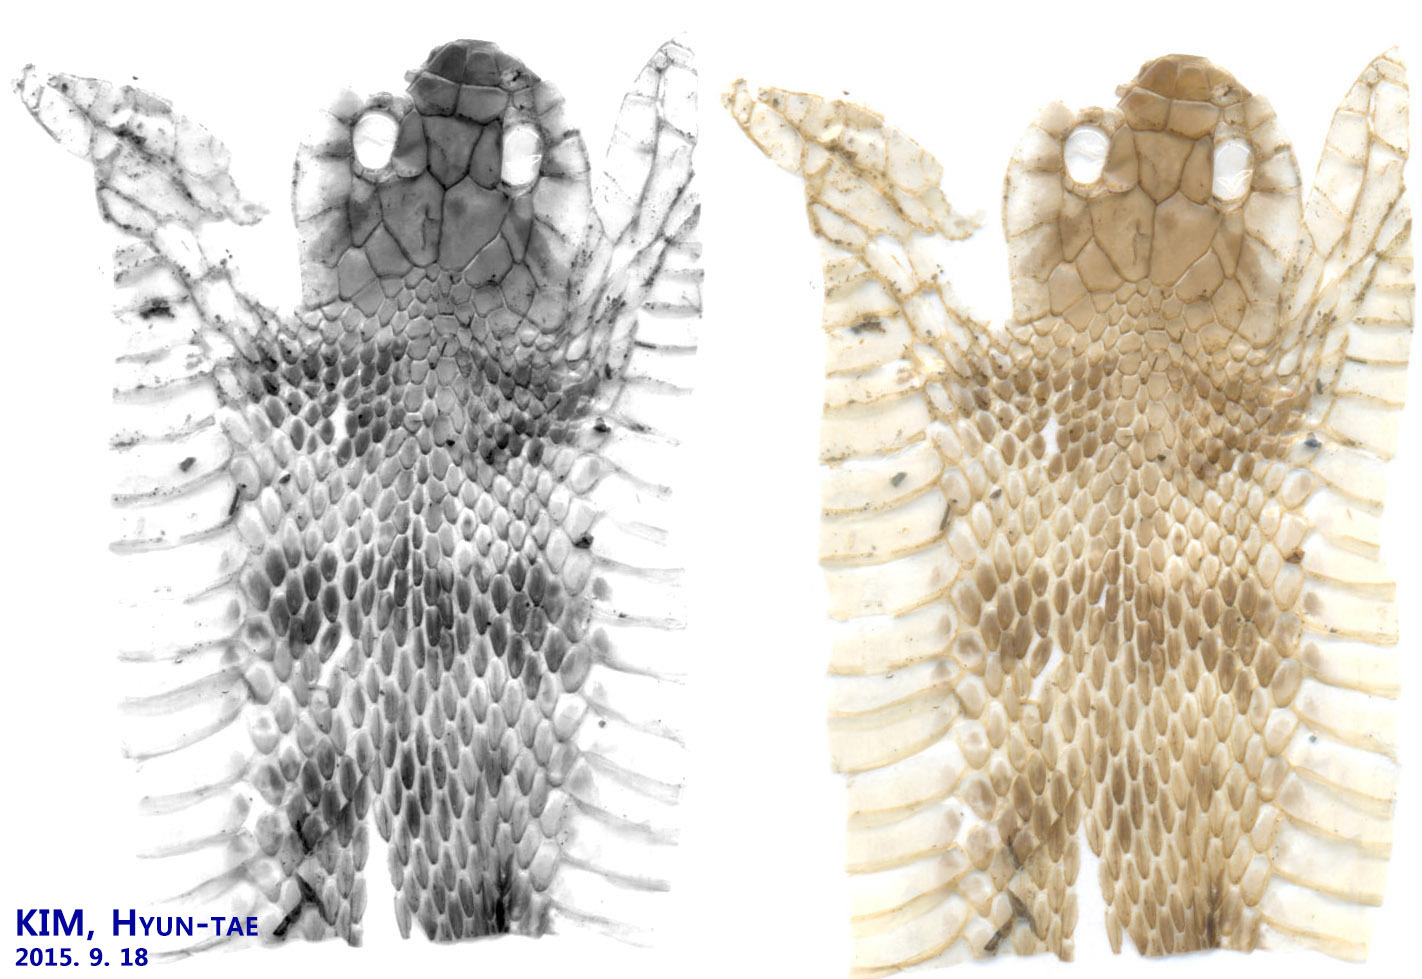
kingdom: Animalia
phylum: Chordata
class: Squamata
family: Colubridae
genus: Rhabdophis
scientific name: Rhabdophis tigrinus
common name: Tiger keelback
